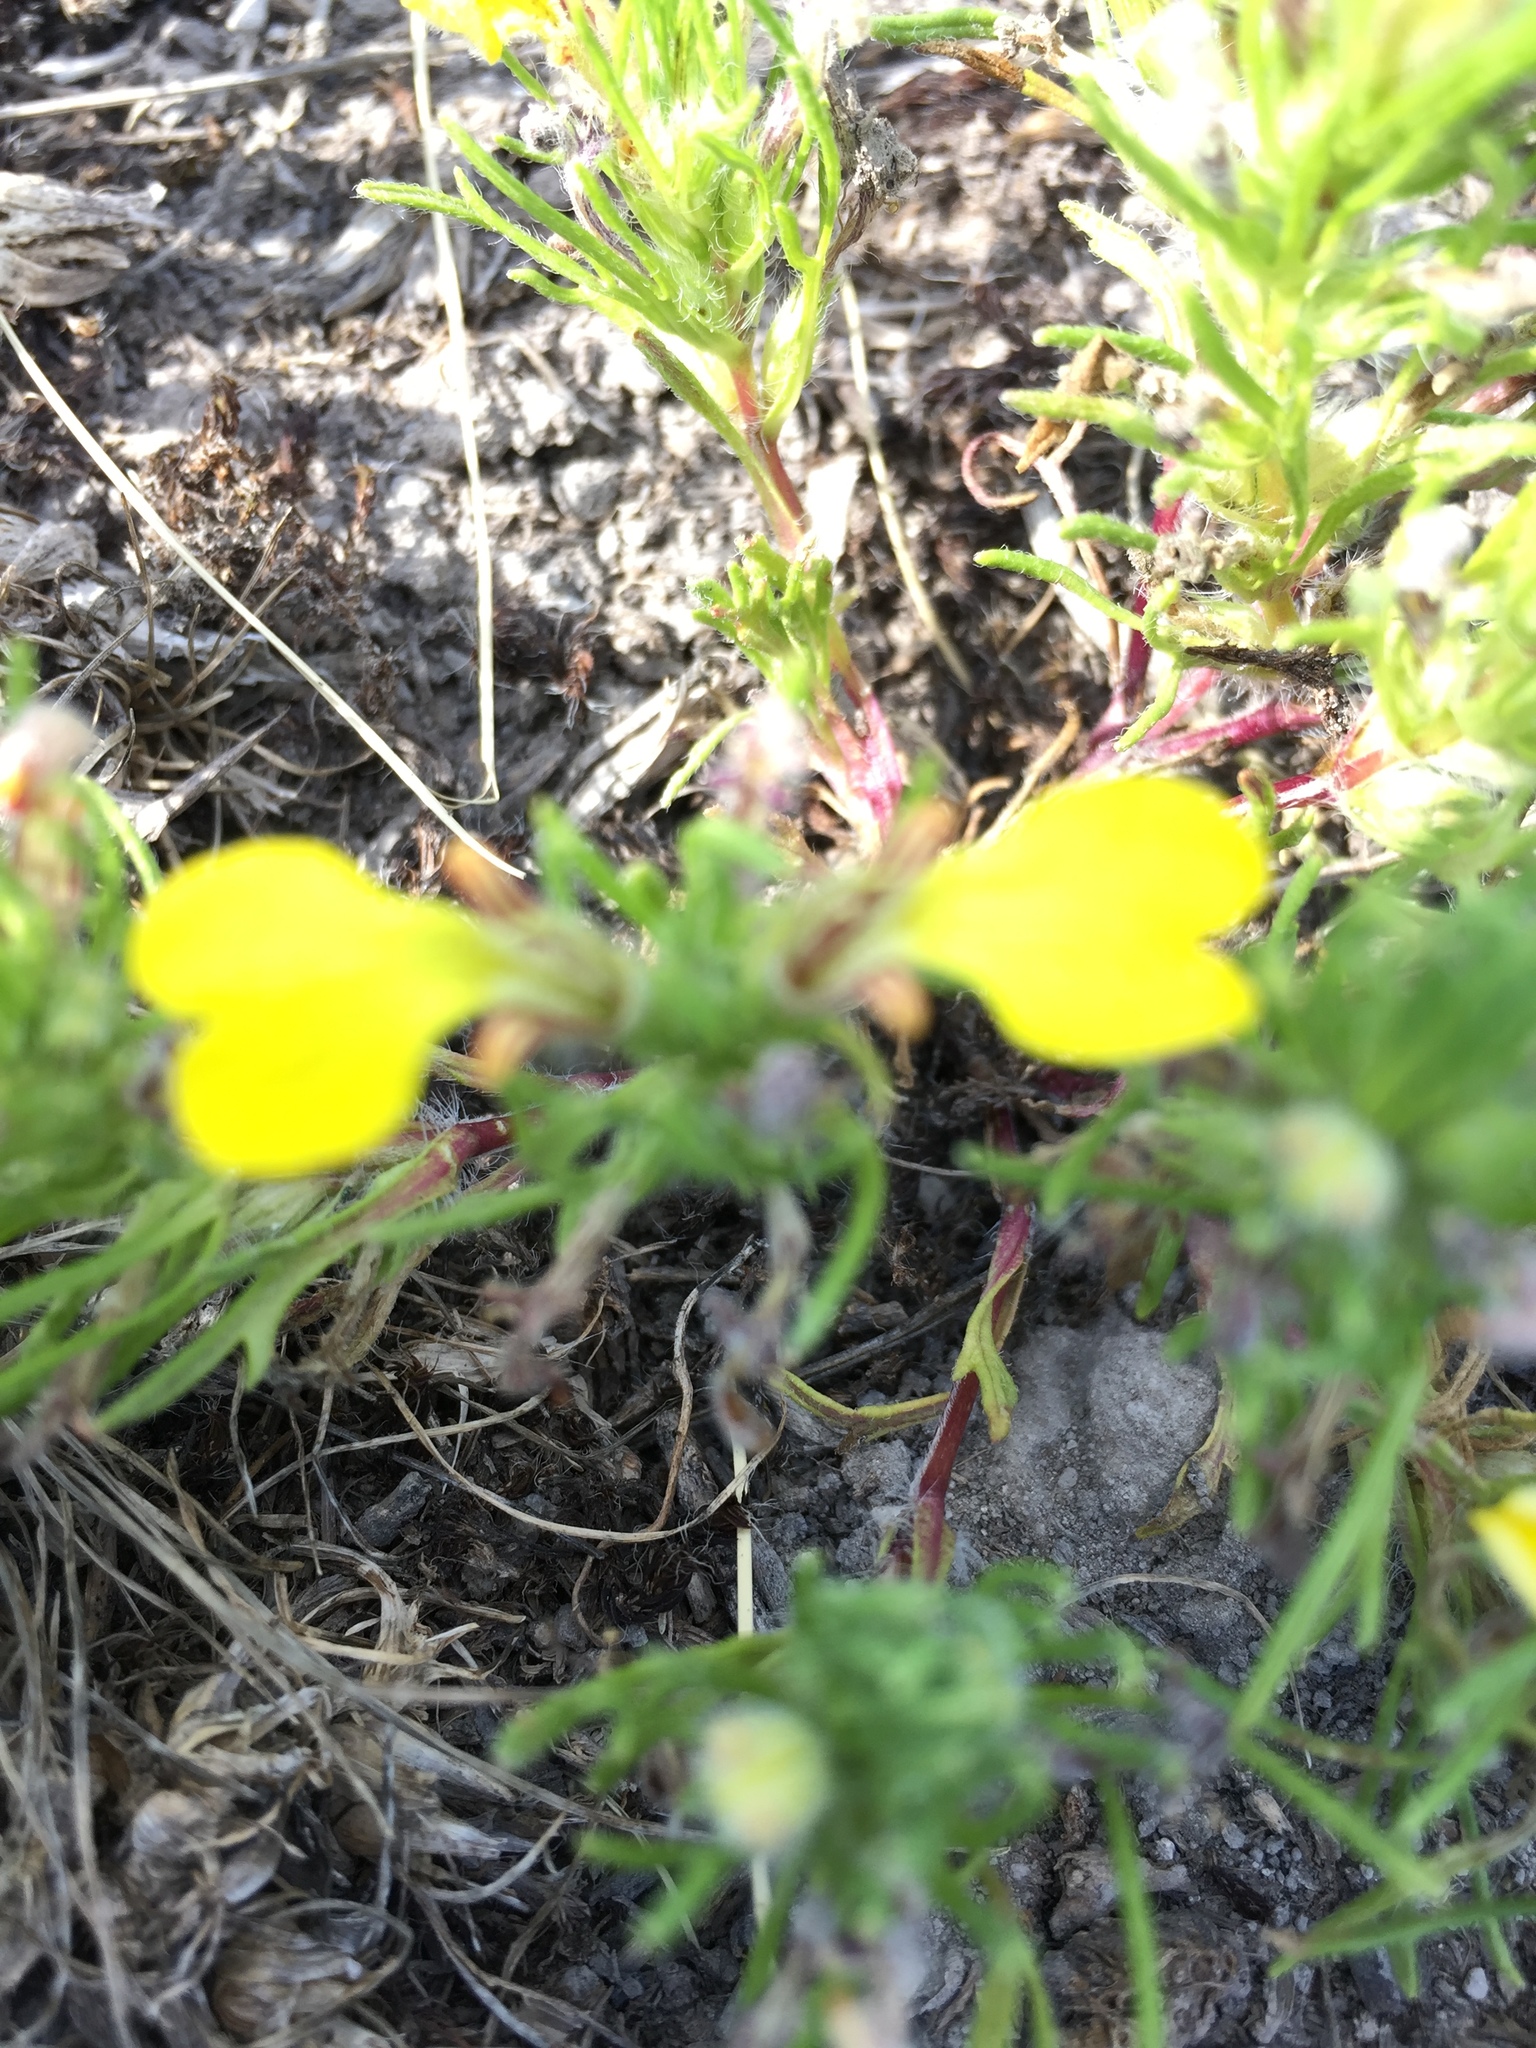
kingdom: Plantae
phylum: Tracheophyta
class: Magnoliopsida
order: Lamiales
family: Lamiaceae
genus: Ajuga
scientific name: Ajuga chamaepitys
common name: Ground-pine
